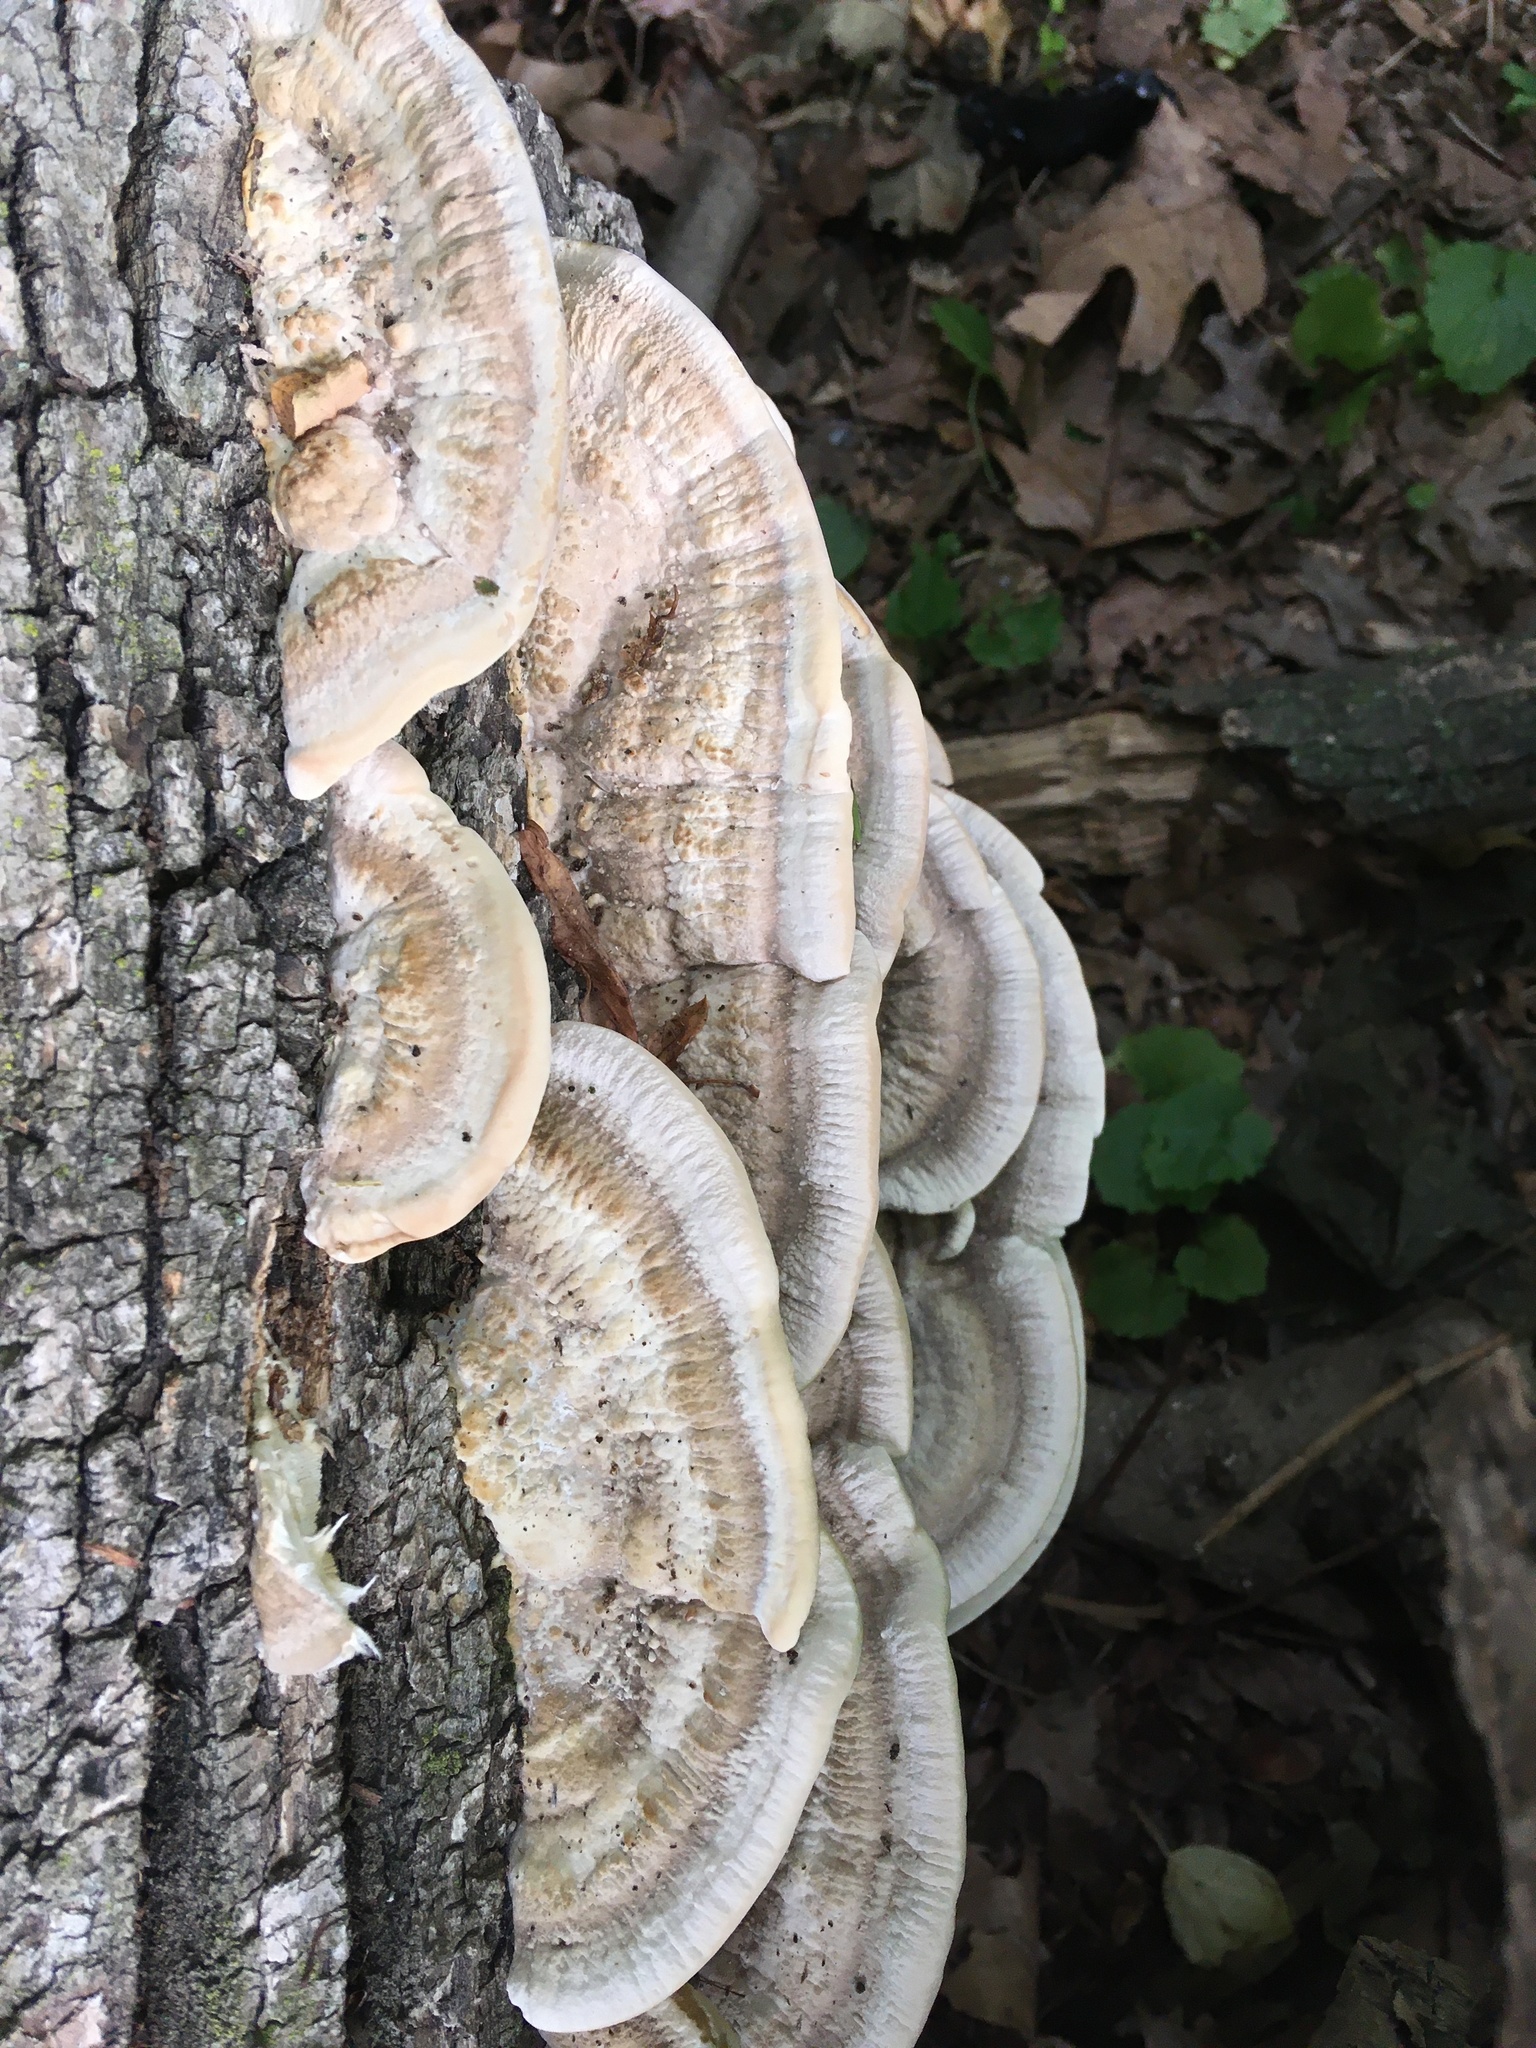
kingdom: Fungi
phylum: Basidiomycota
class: Agaricomycetes
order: Polyporales
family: Polyporaceae
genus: Trametes
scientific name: Trametes lactinea
